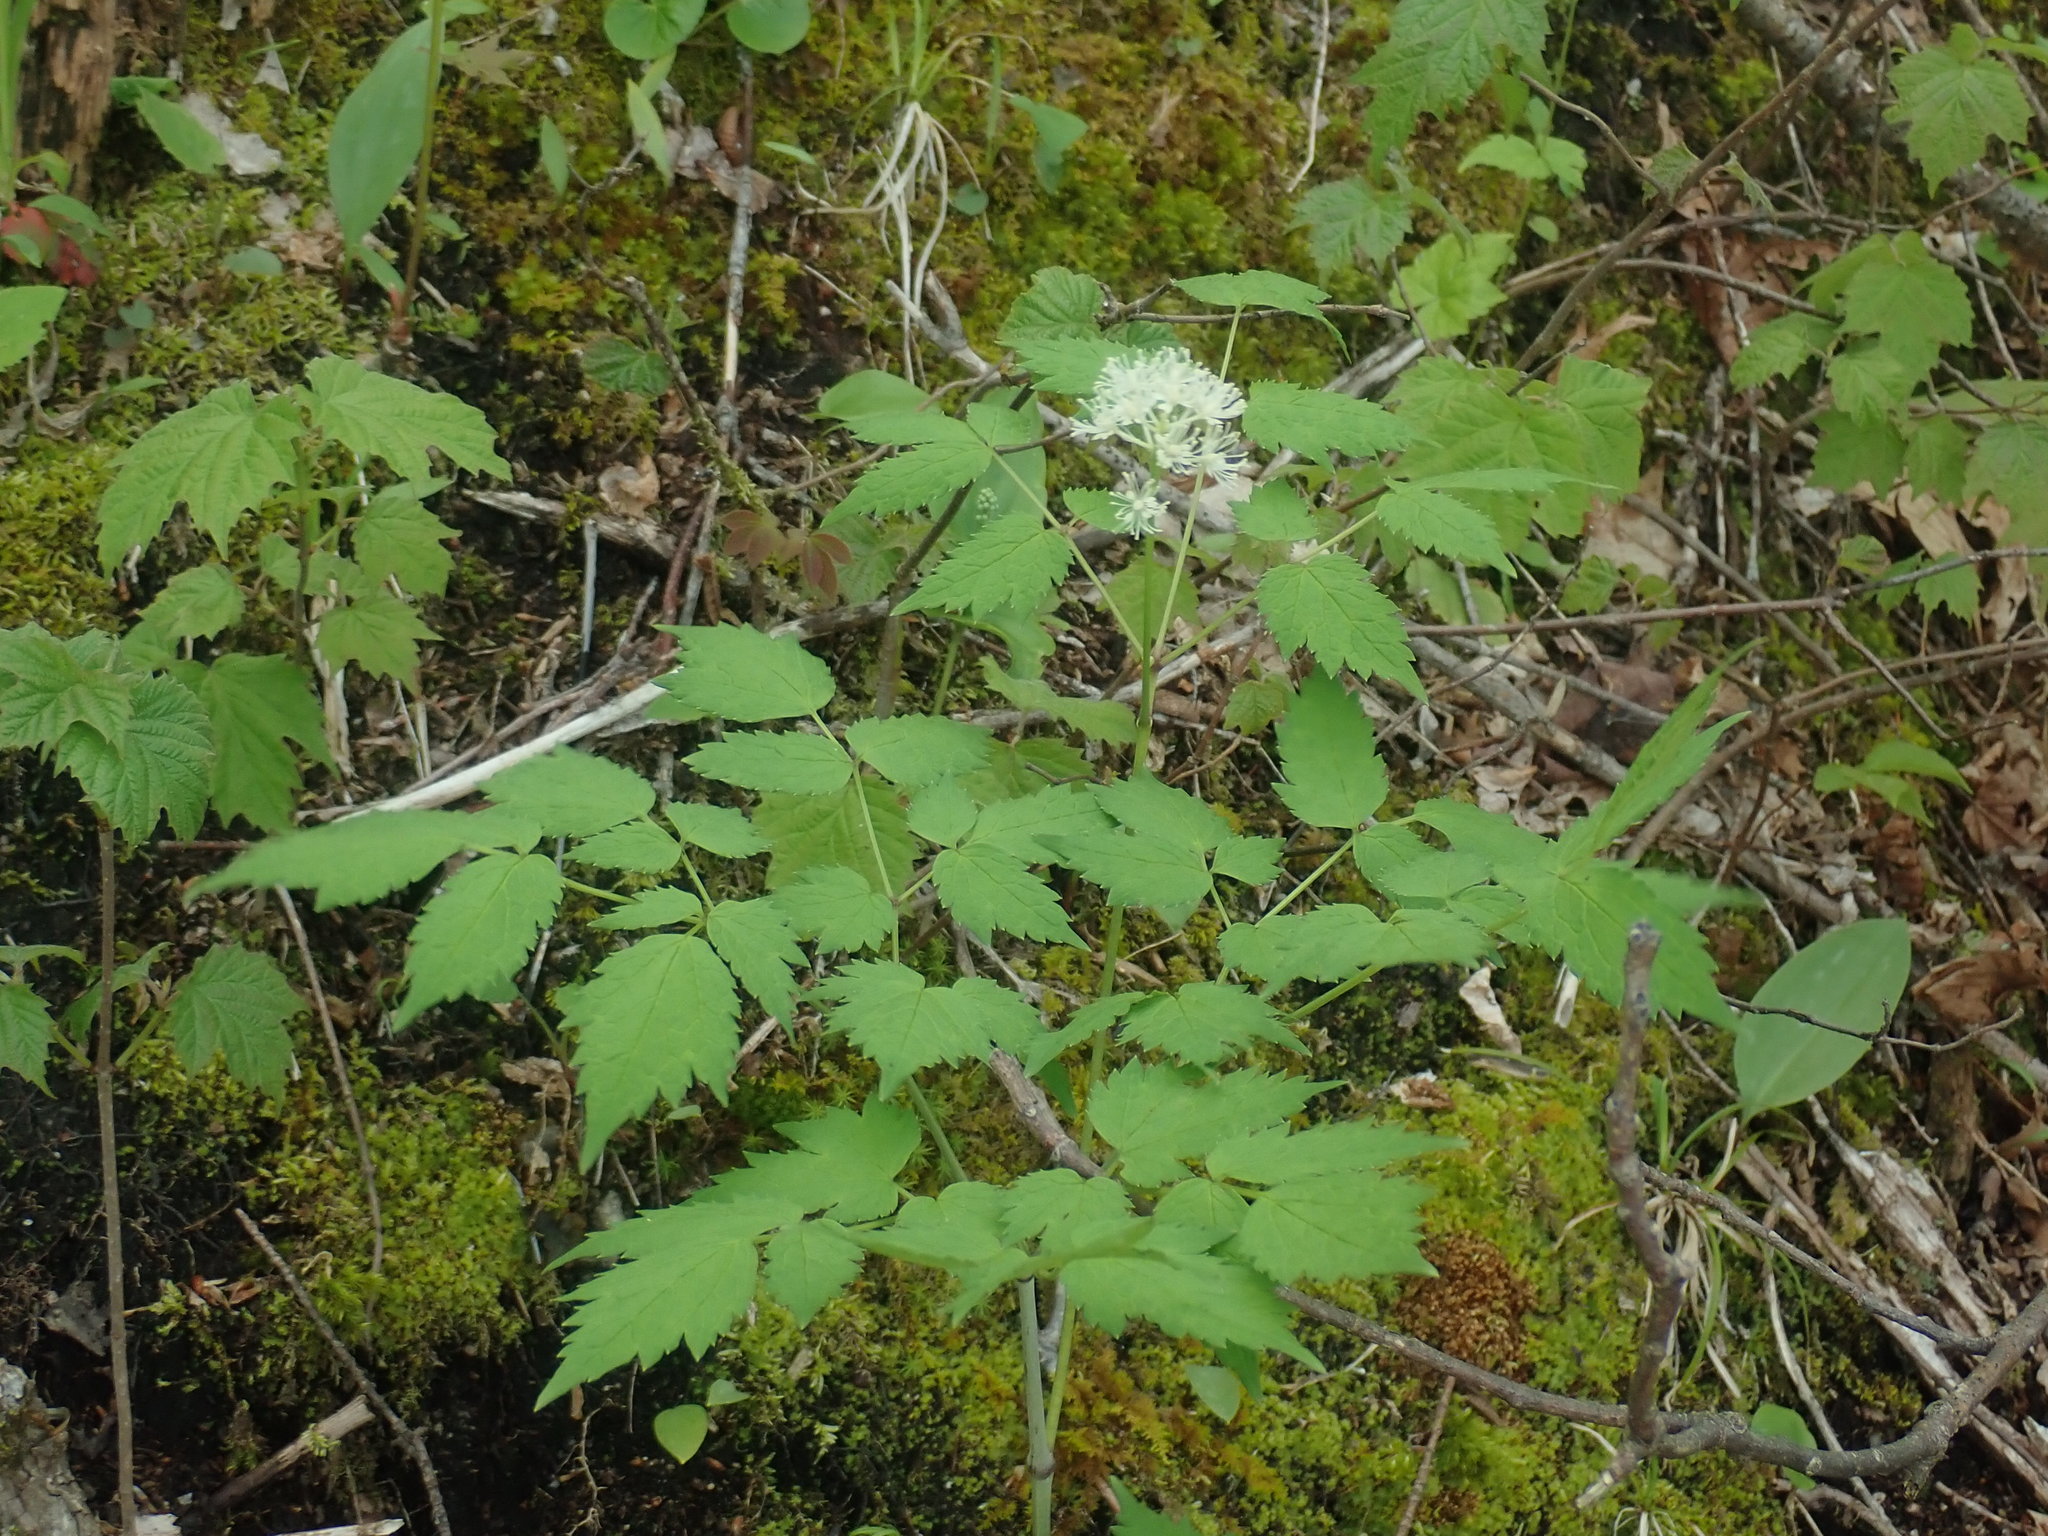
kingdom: Plantae
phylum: Tracheophyta
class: Magnoliopsida
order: Ranunculales
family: Ranunculaceae
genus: Actaea
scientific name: Actaea rubra
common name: Red baneberry
